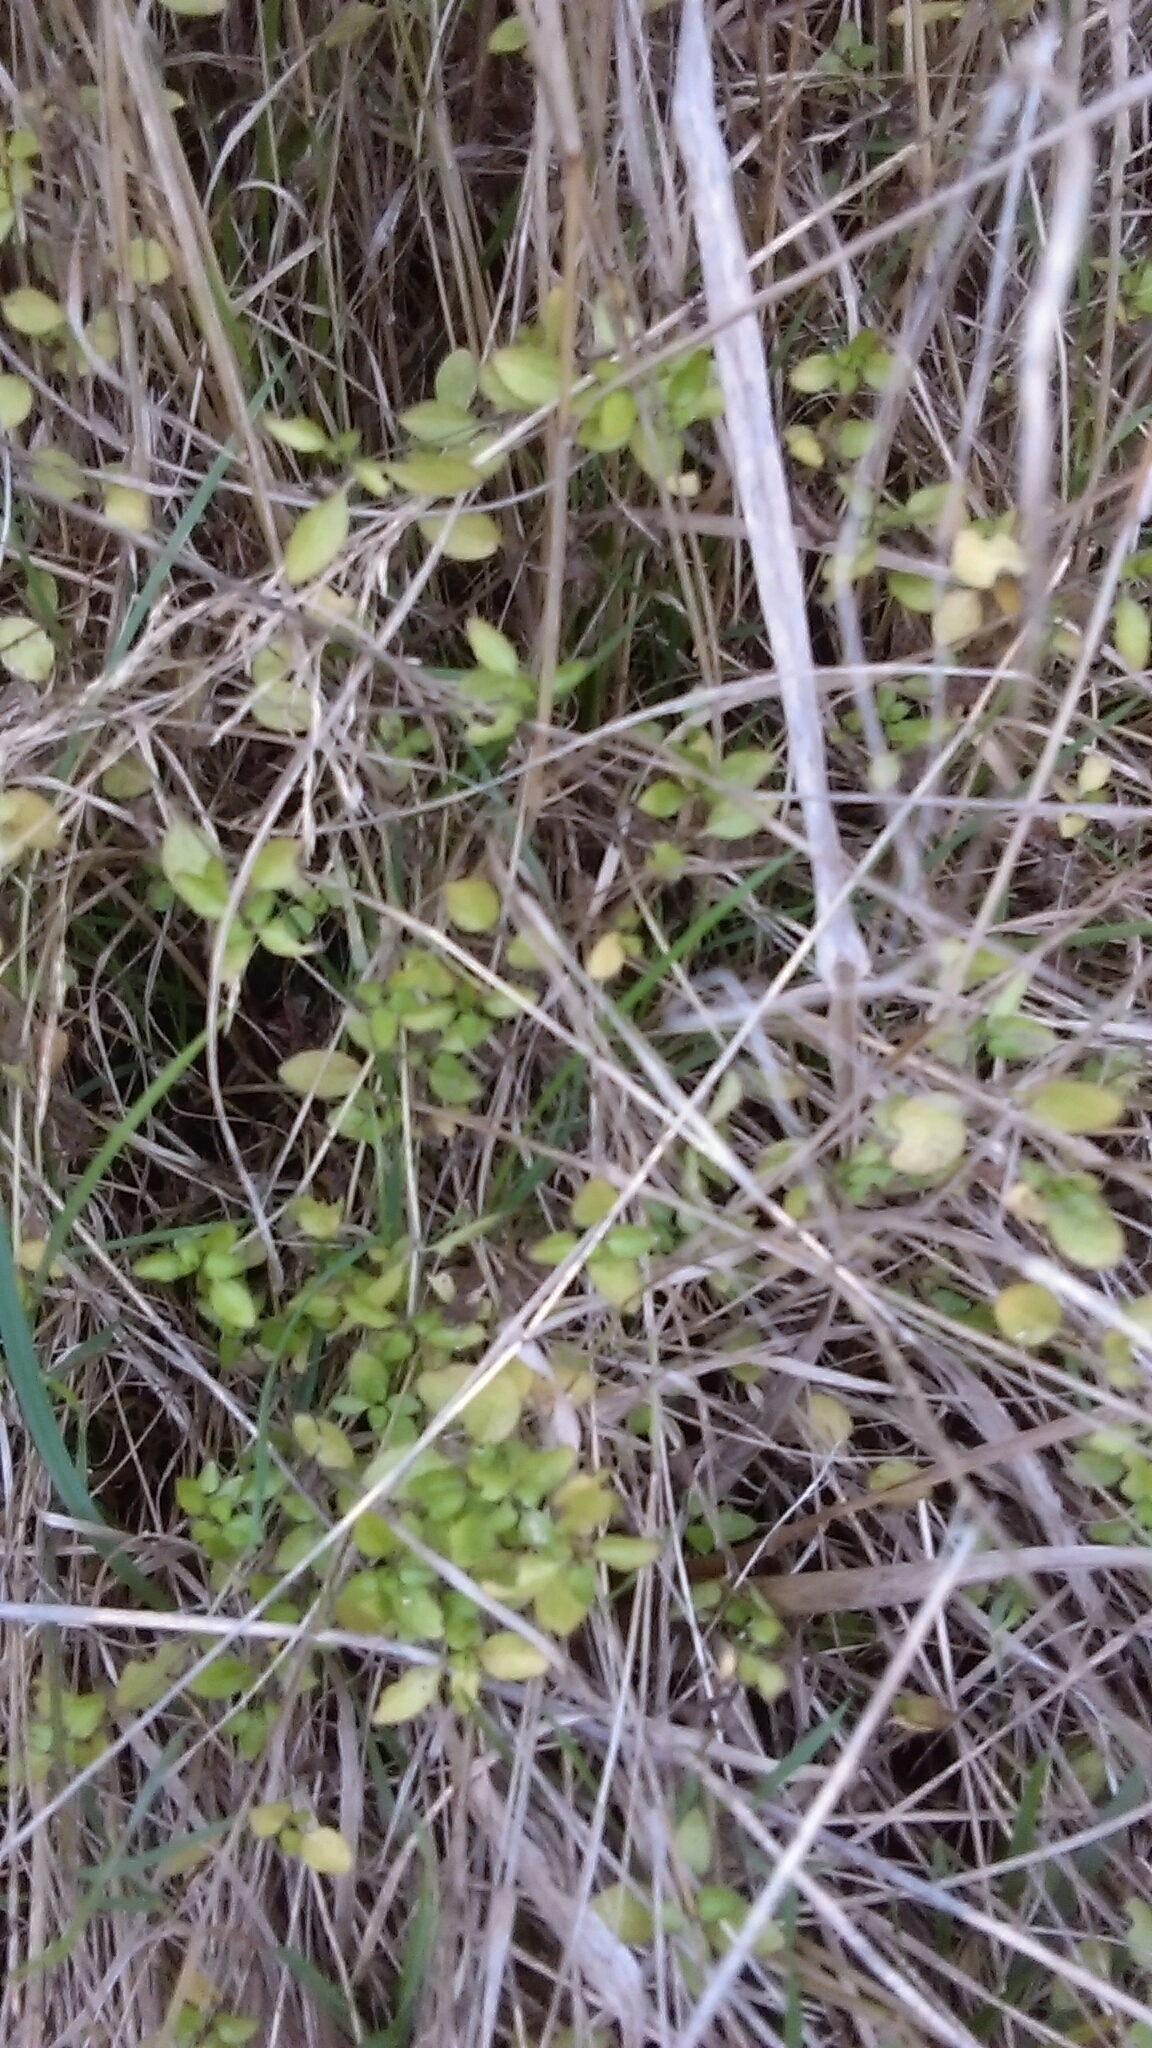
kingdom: Plantae
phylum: Tracheophyta
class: Magnoliopsida
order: Gentianales
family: Rubiaceae
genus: Leptostigma
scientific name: Leptostigma setulosum
